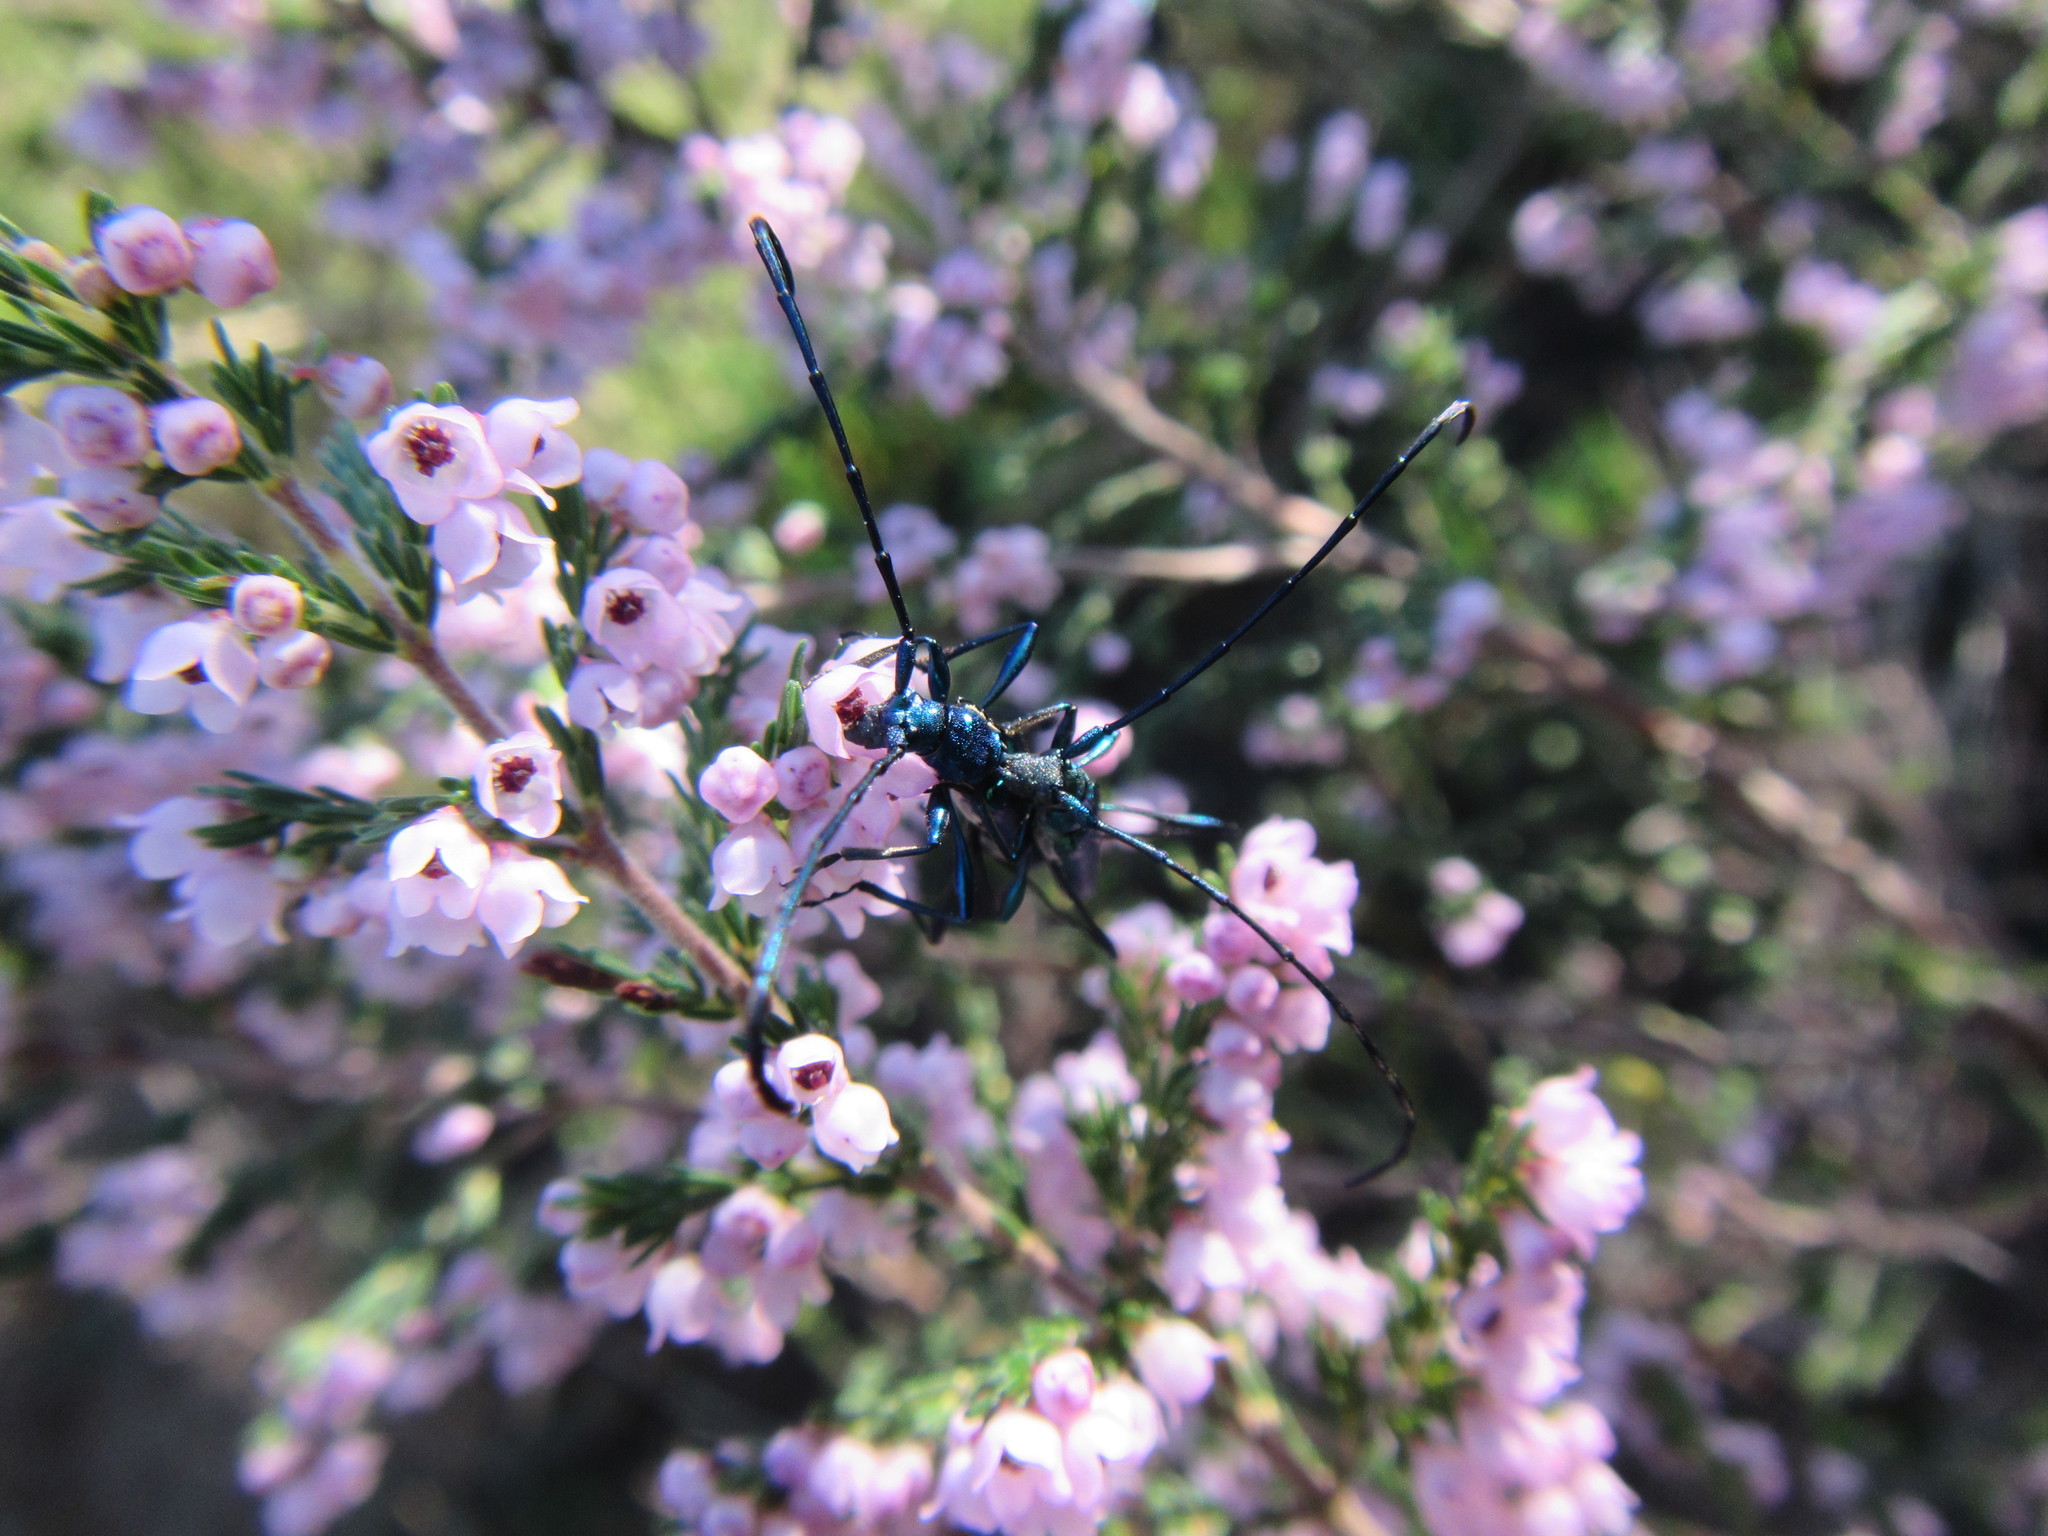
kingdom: Plantae
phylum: Tracheophyta
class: Magnoliopsida
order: Ericales
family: Ericaceae
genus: Erica
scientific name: Erica mauritanica
